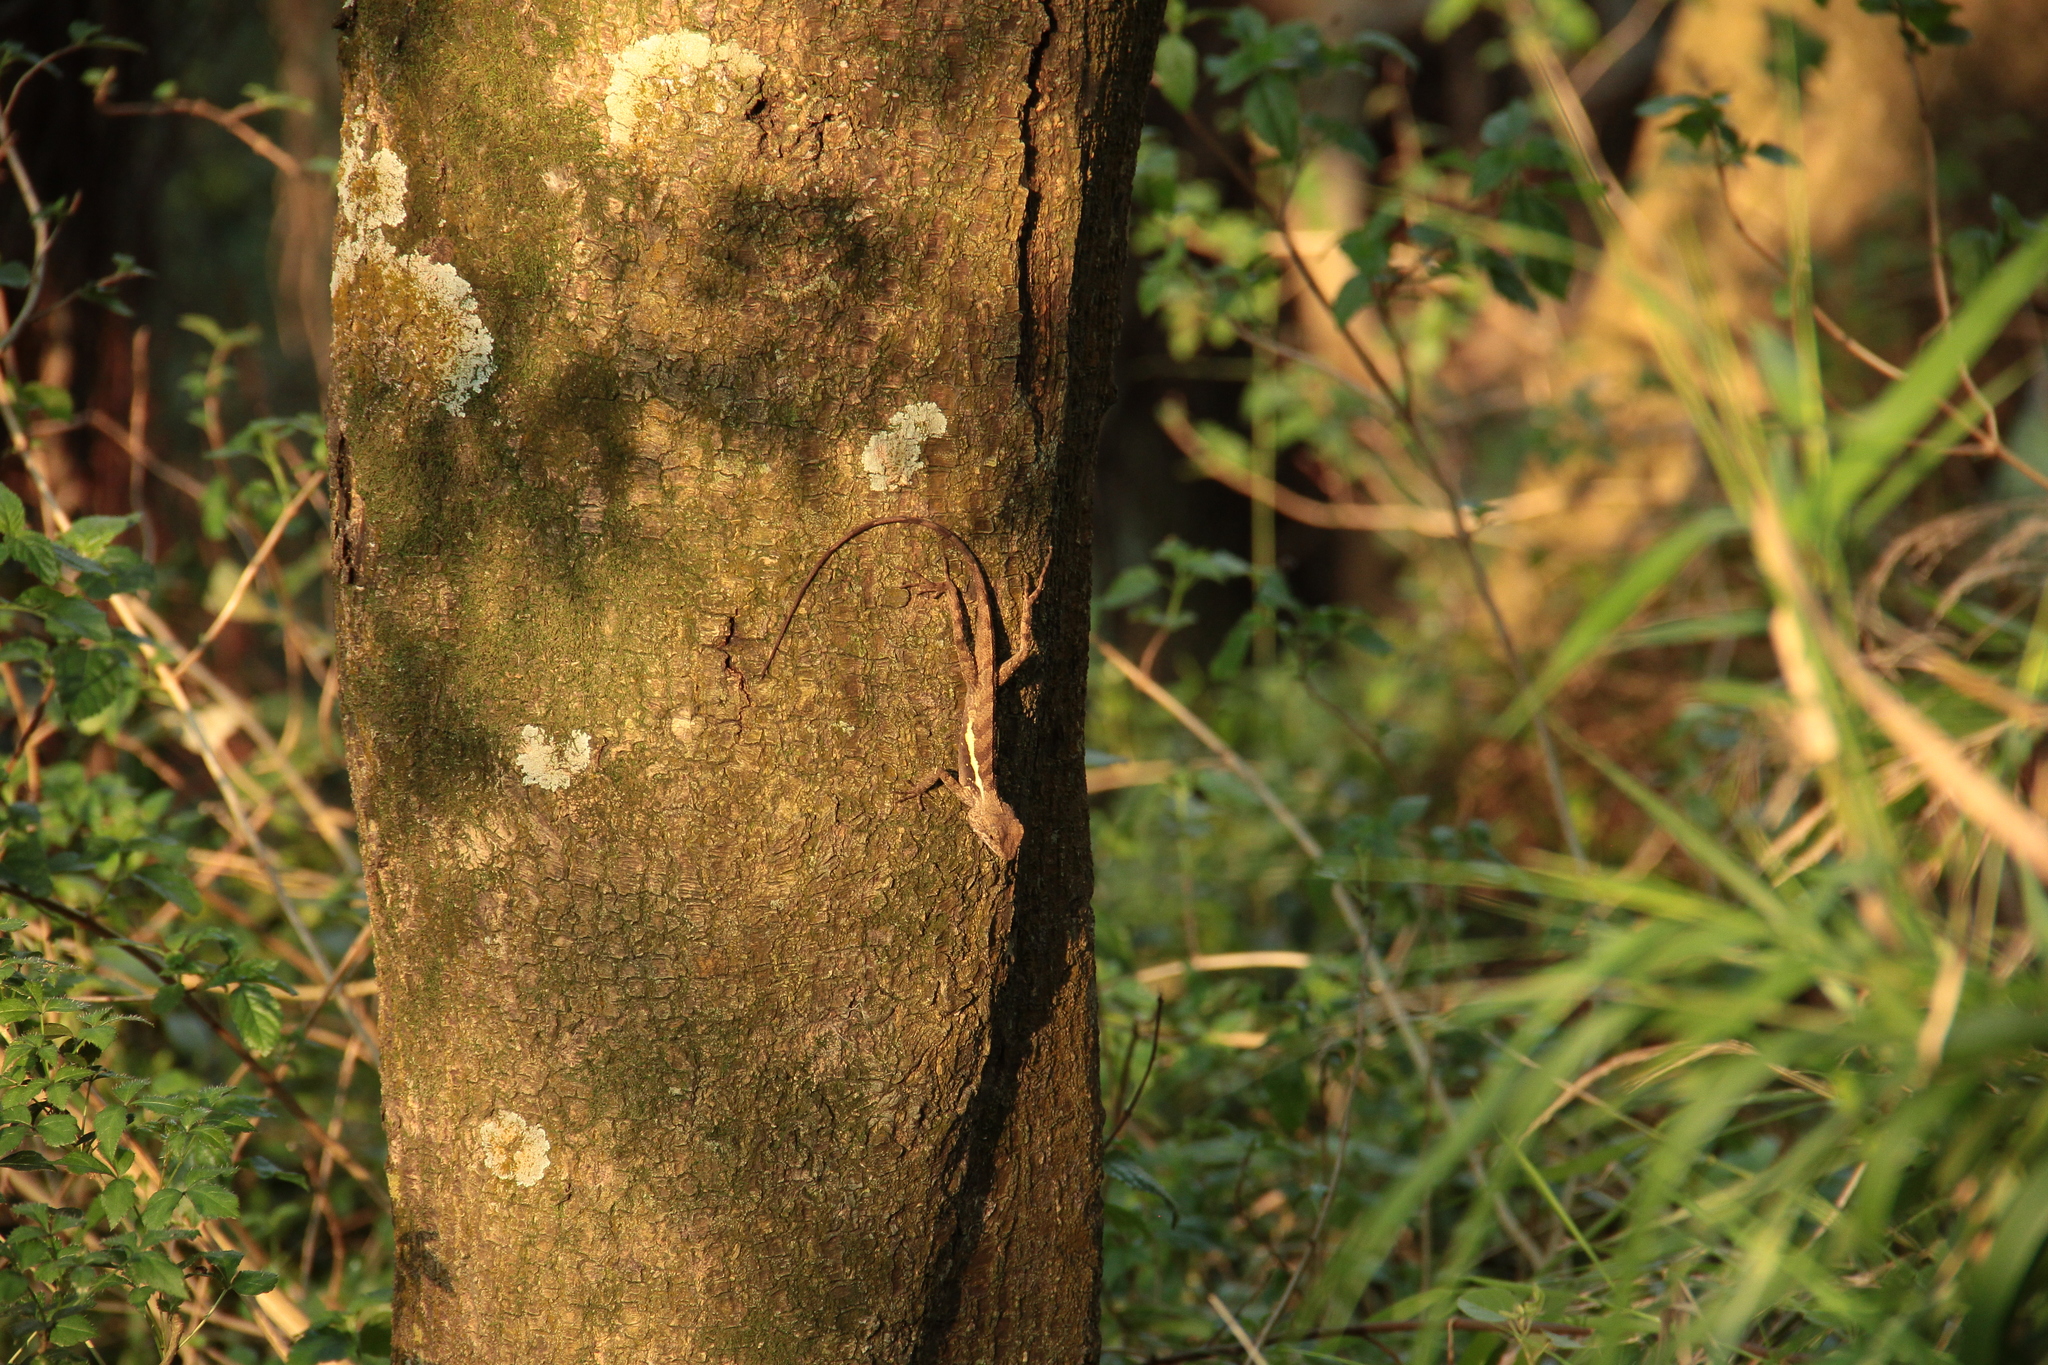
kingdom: Animalia
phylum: Chordata
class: Squamata
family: Agamidae
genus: Diploderma
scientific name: Diploderma swinhonis
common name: Taiwan japalure
